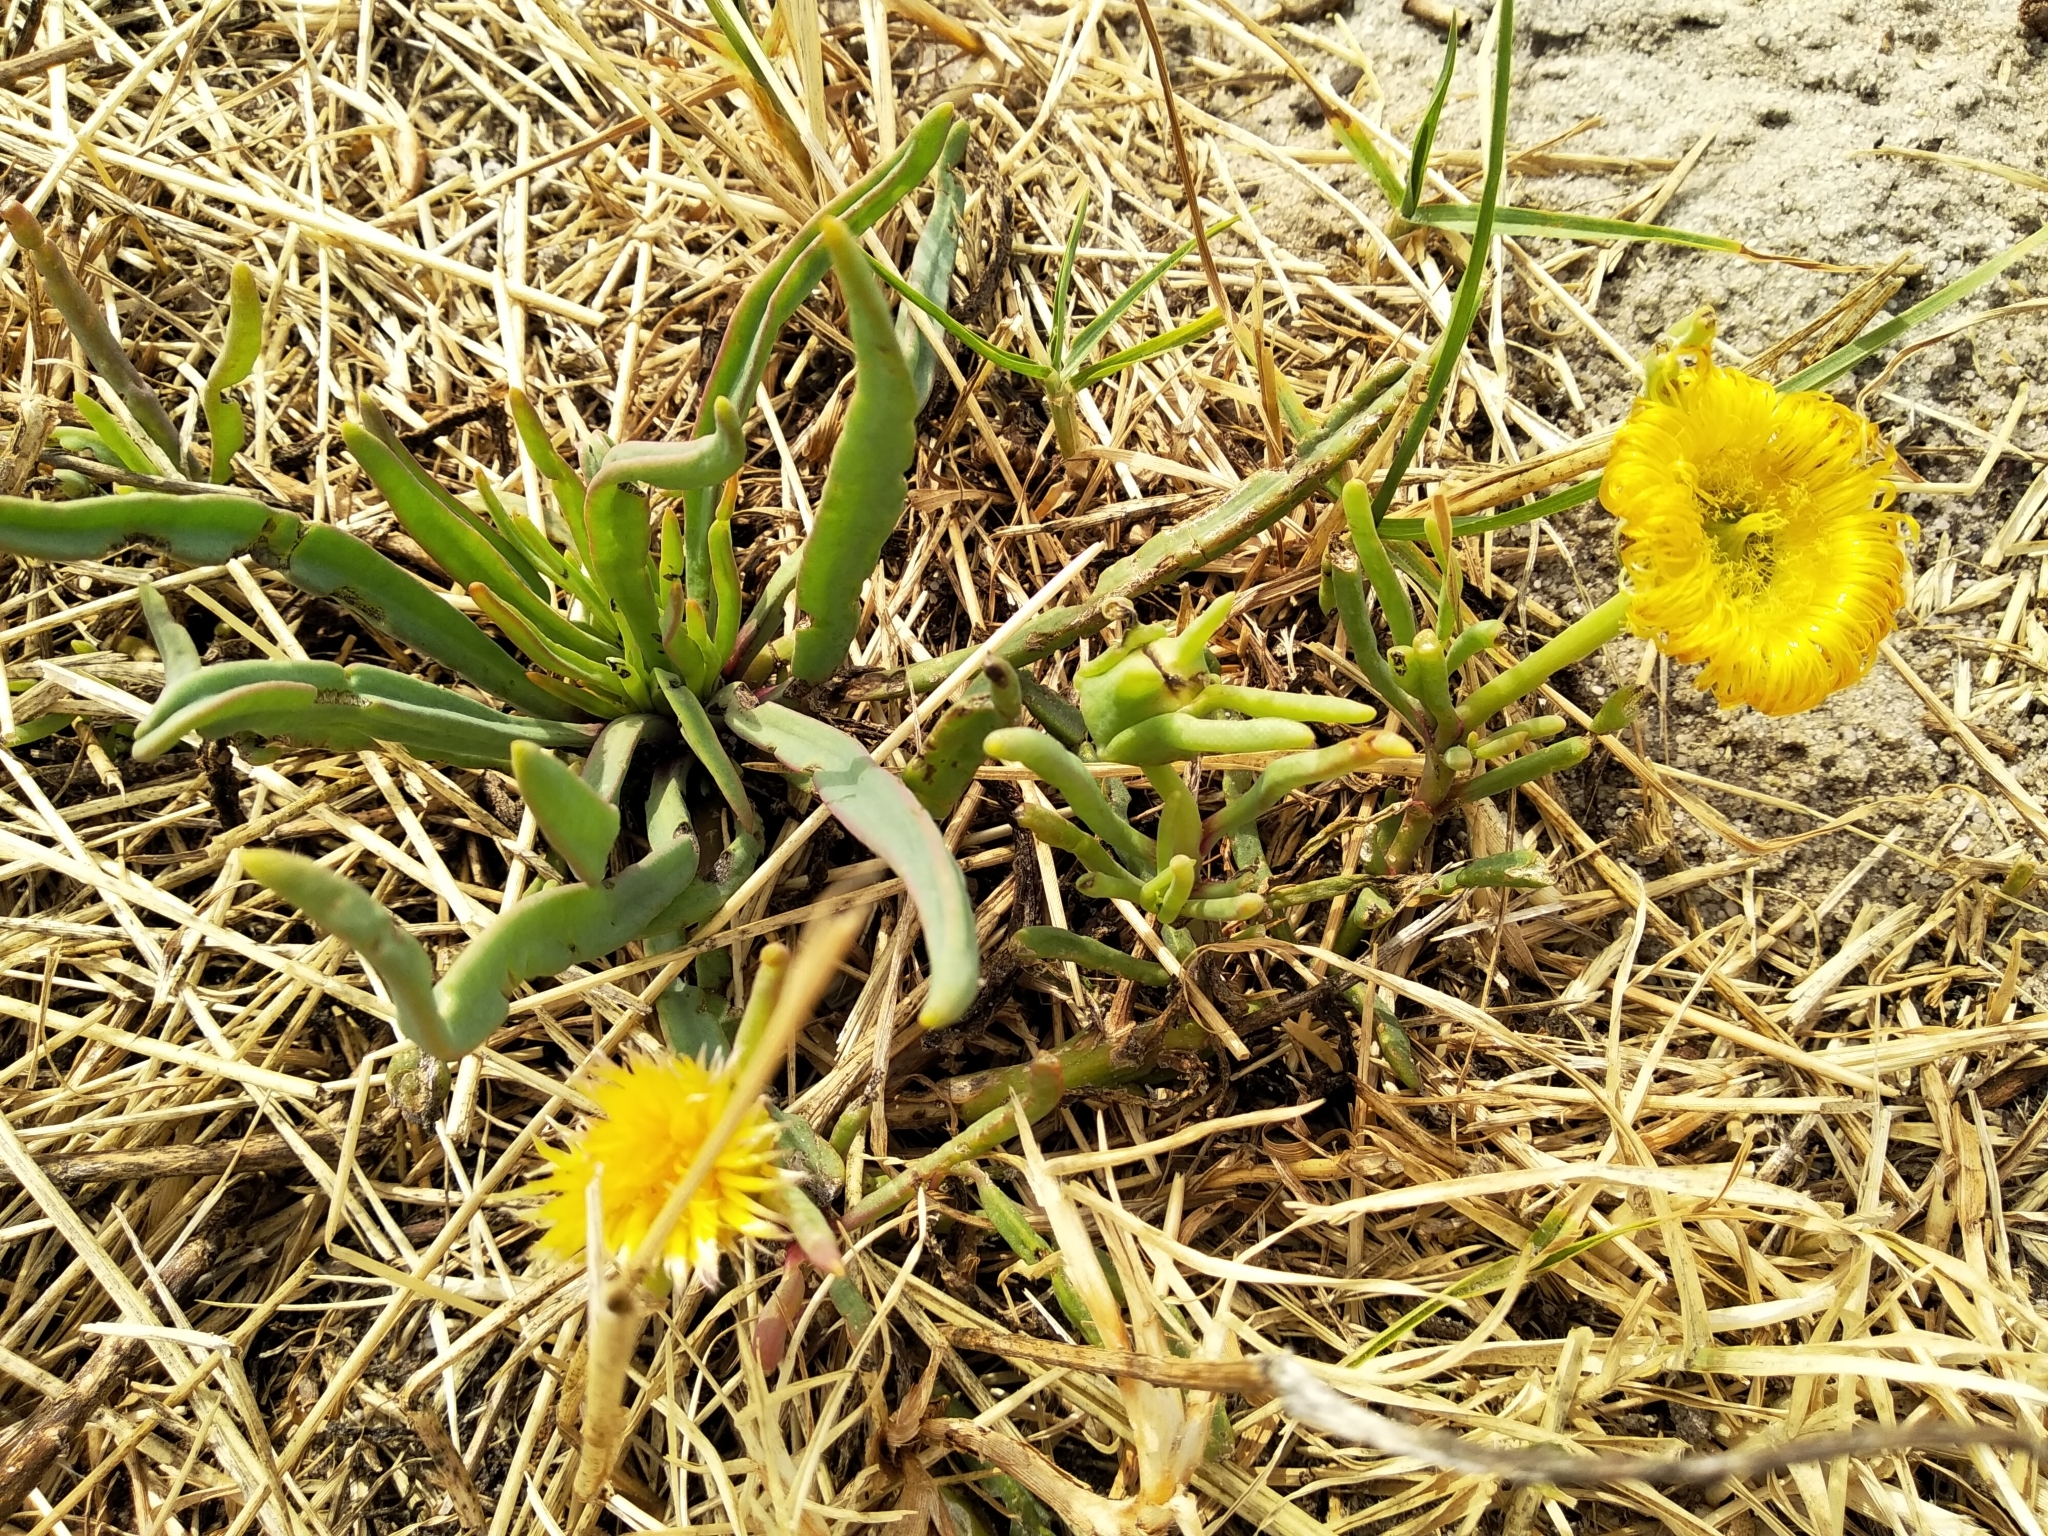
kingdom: Plantae
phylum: Tracheophyta
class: Magnoliopsida
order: Caryophyllales
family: Aizoaceae
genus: Conicosia
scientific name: Conicosia pugioniformis
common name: Narrow-leaved iceplant
